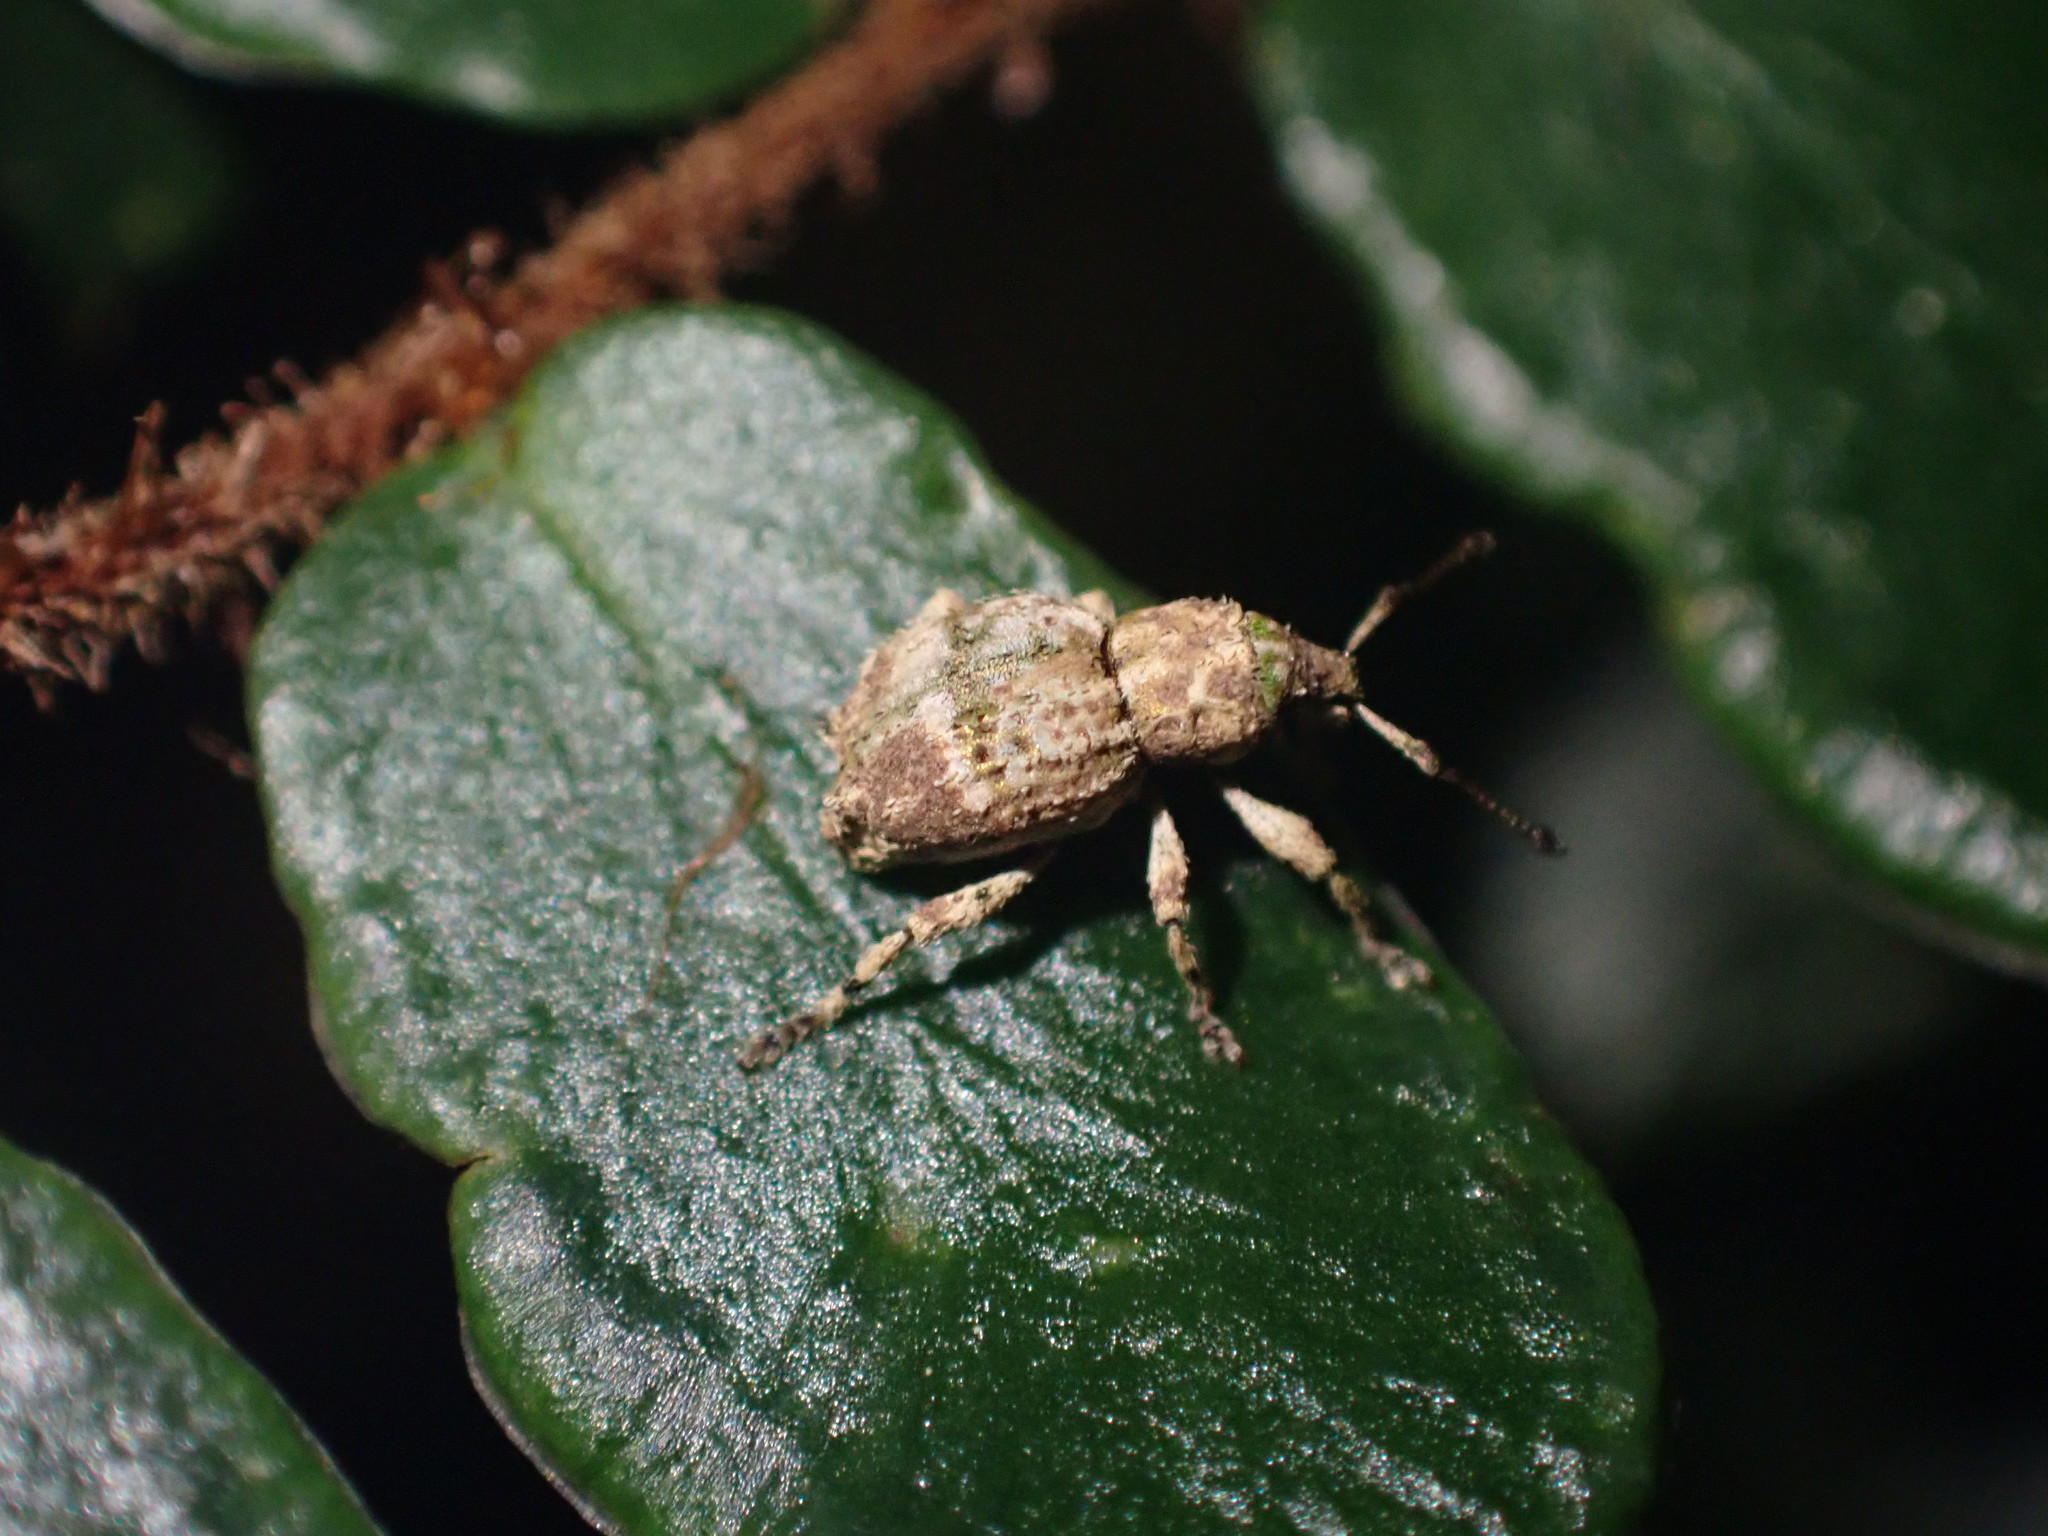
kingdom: Animalia
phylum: Arthropoda
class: Insecta
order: Coleoptera
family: Curculionidae
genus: Brachyolus
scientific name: Brachyolus punctatus
